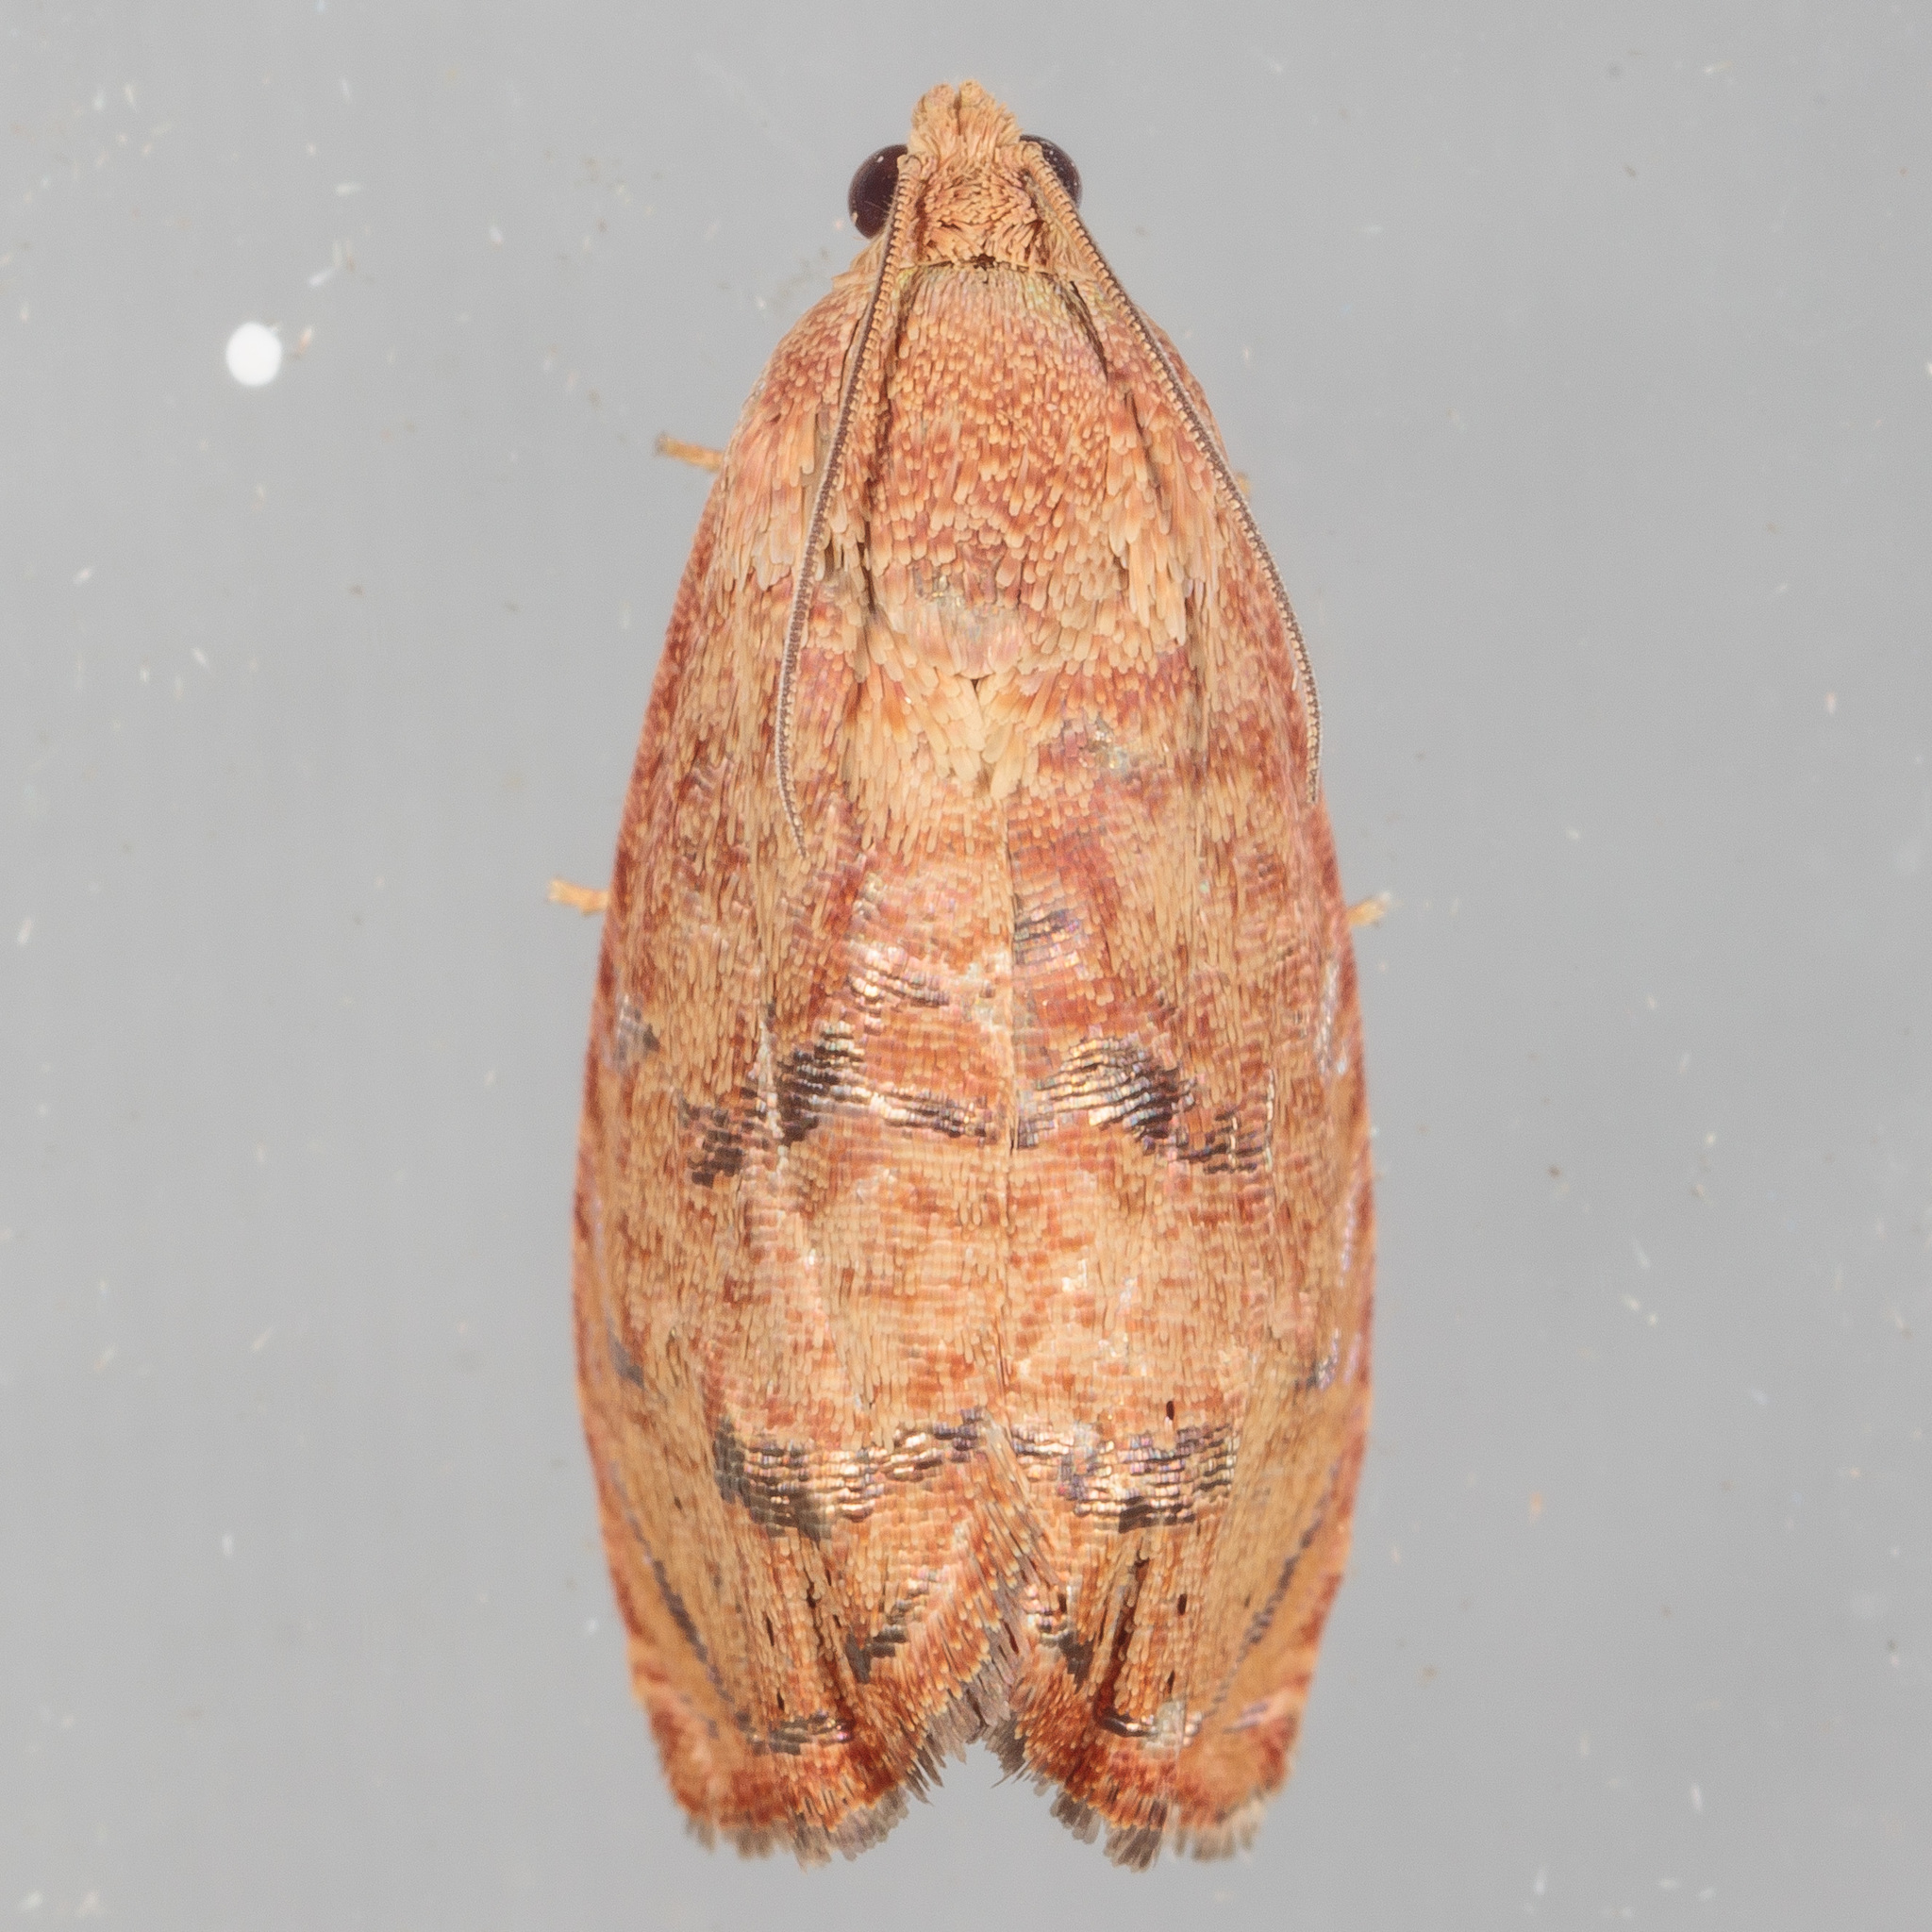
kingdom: Animalia
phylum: Arthropoda
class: Insecta
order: Lepidoptera
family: Tortricidae
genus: Cydia
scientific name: Cydia latiferreana
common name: Filbertworm moth
